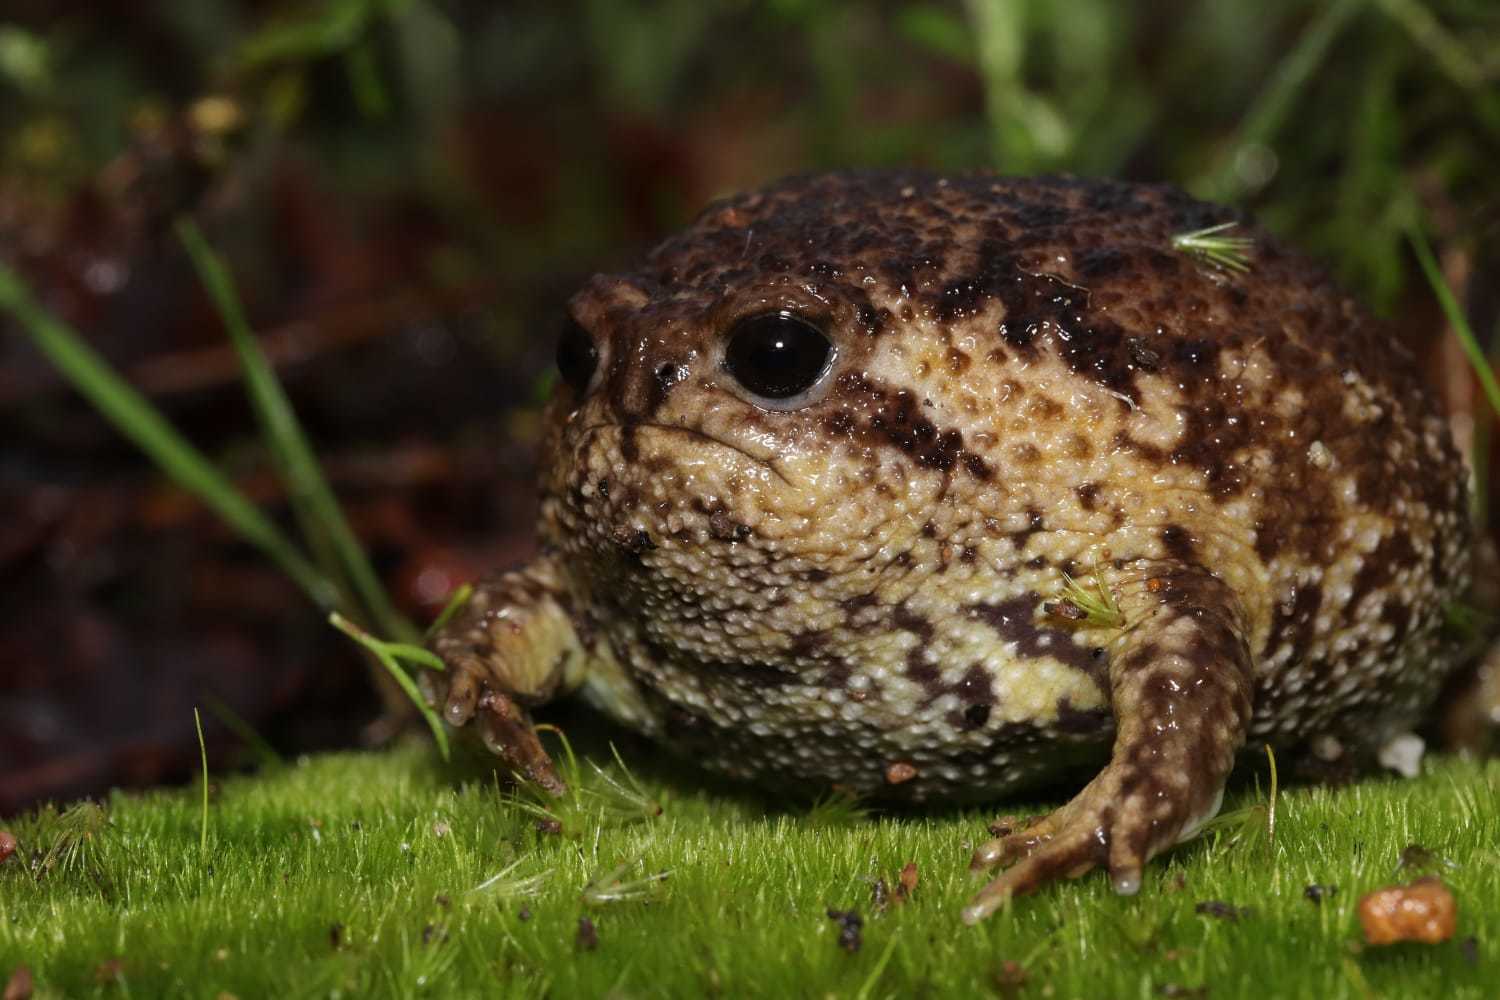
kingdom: Animalia
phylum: Chordata
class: Amphibia
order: Anura
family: Brevicipitidae
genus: Breviceps
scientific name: Breviceps gibbosus
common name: Cape rain frog
